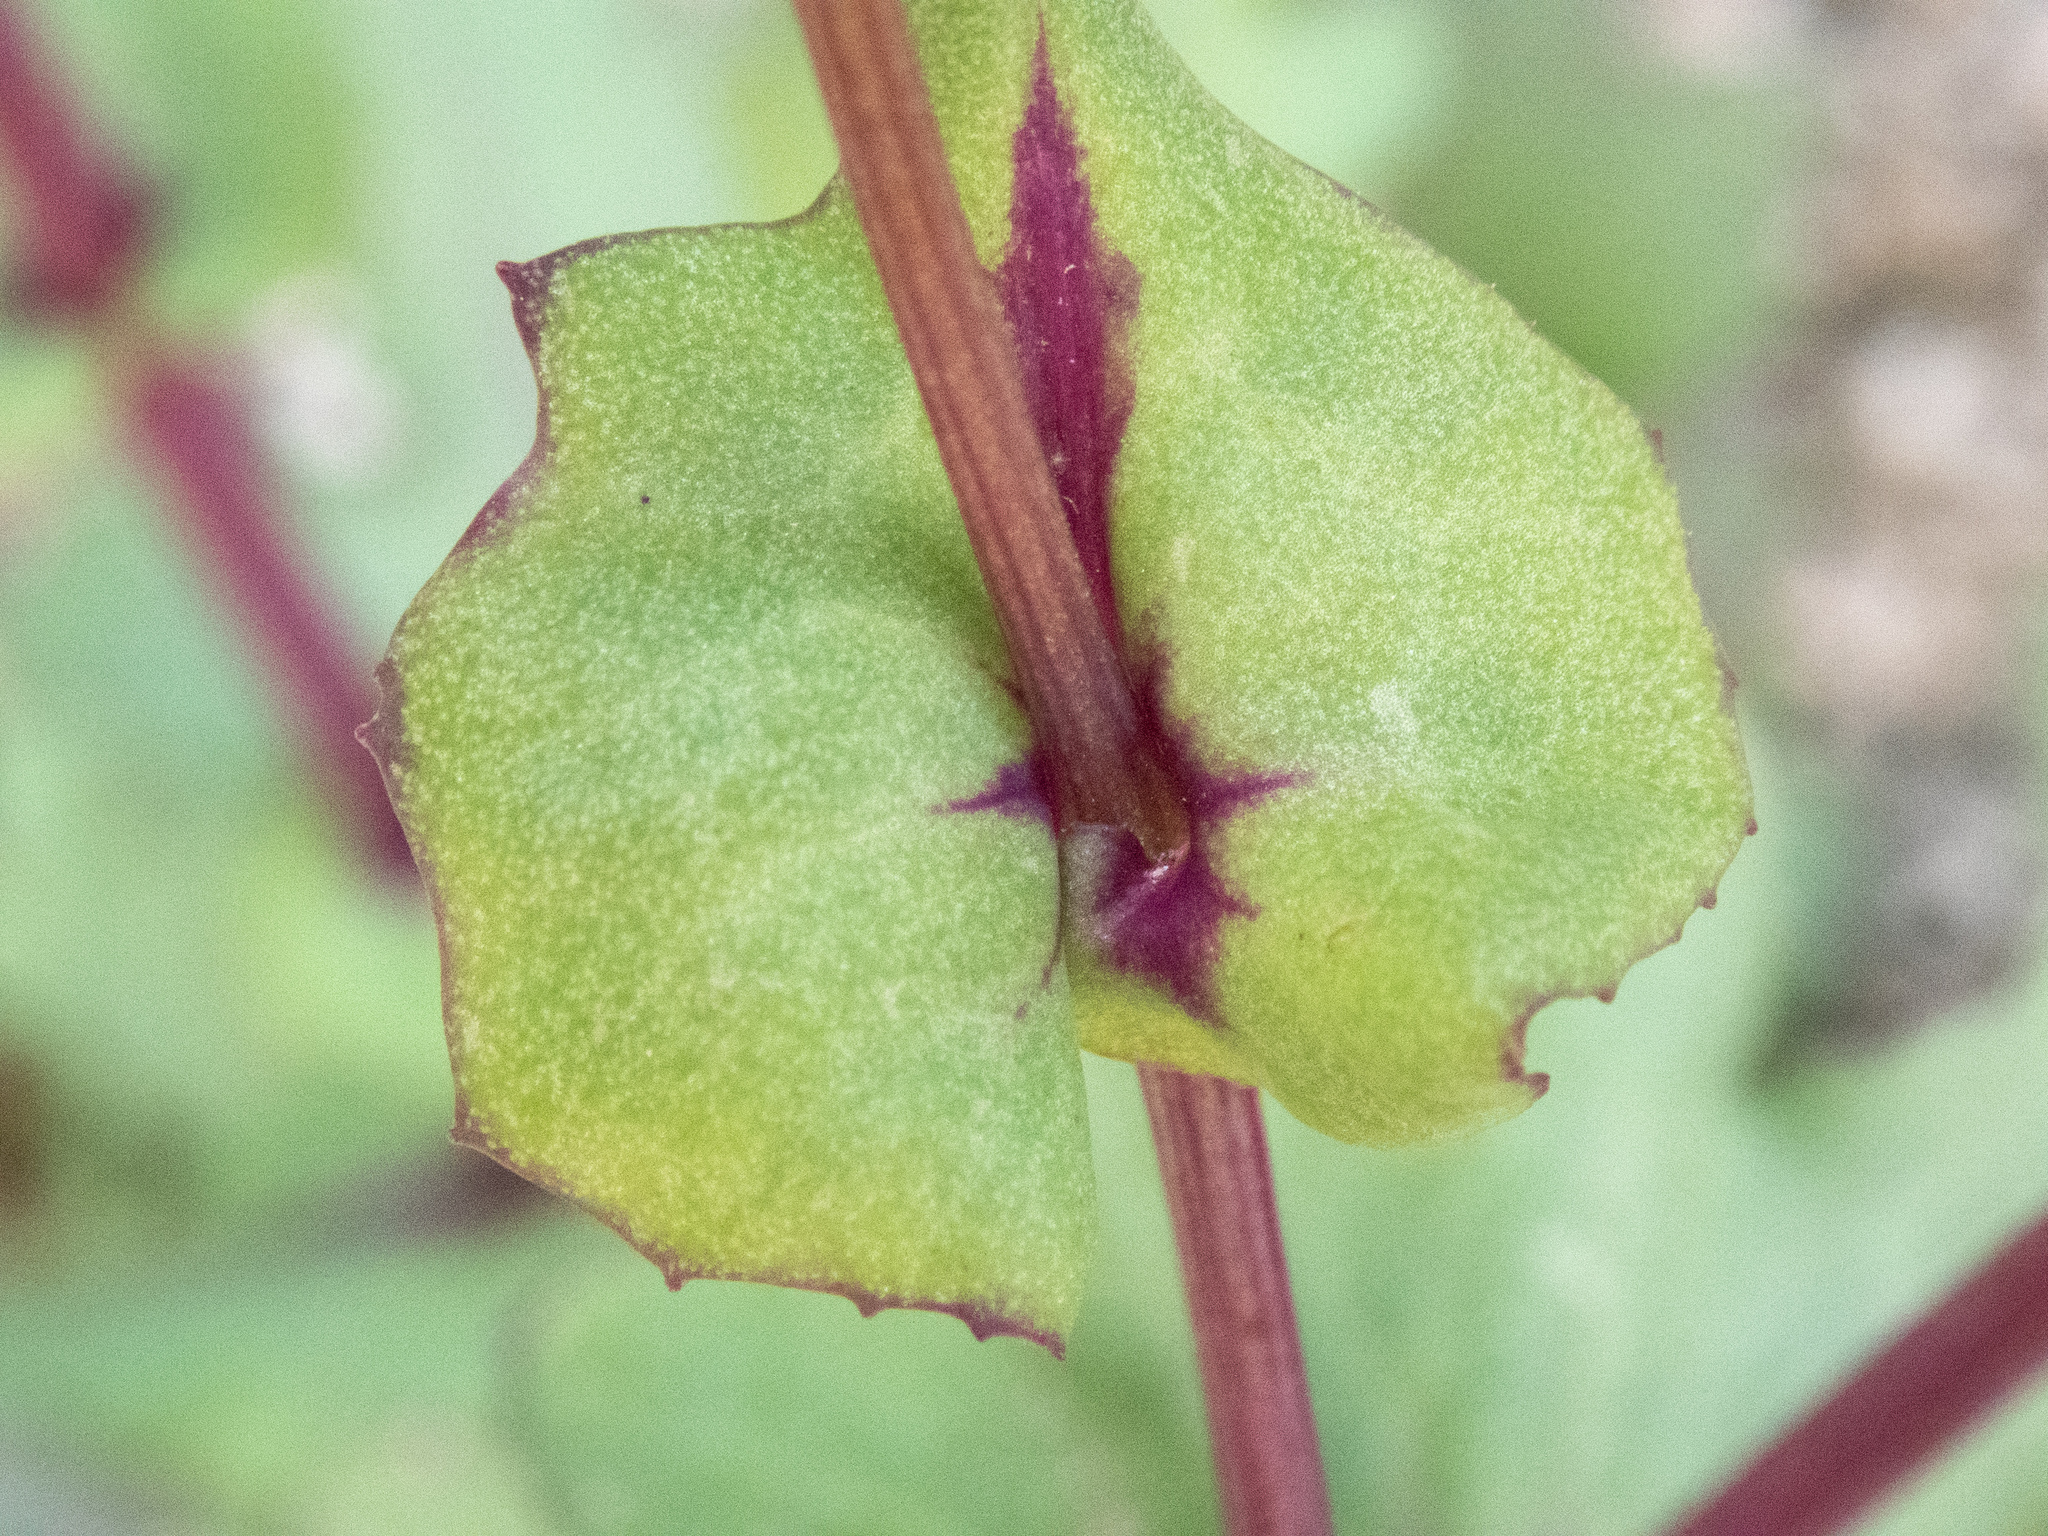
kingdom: Plantae
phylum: Tracheophyta
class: Magnoliopsida
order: Asterales
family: Asteraceae
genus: Senecio
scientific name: Senecio mohavensis
